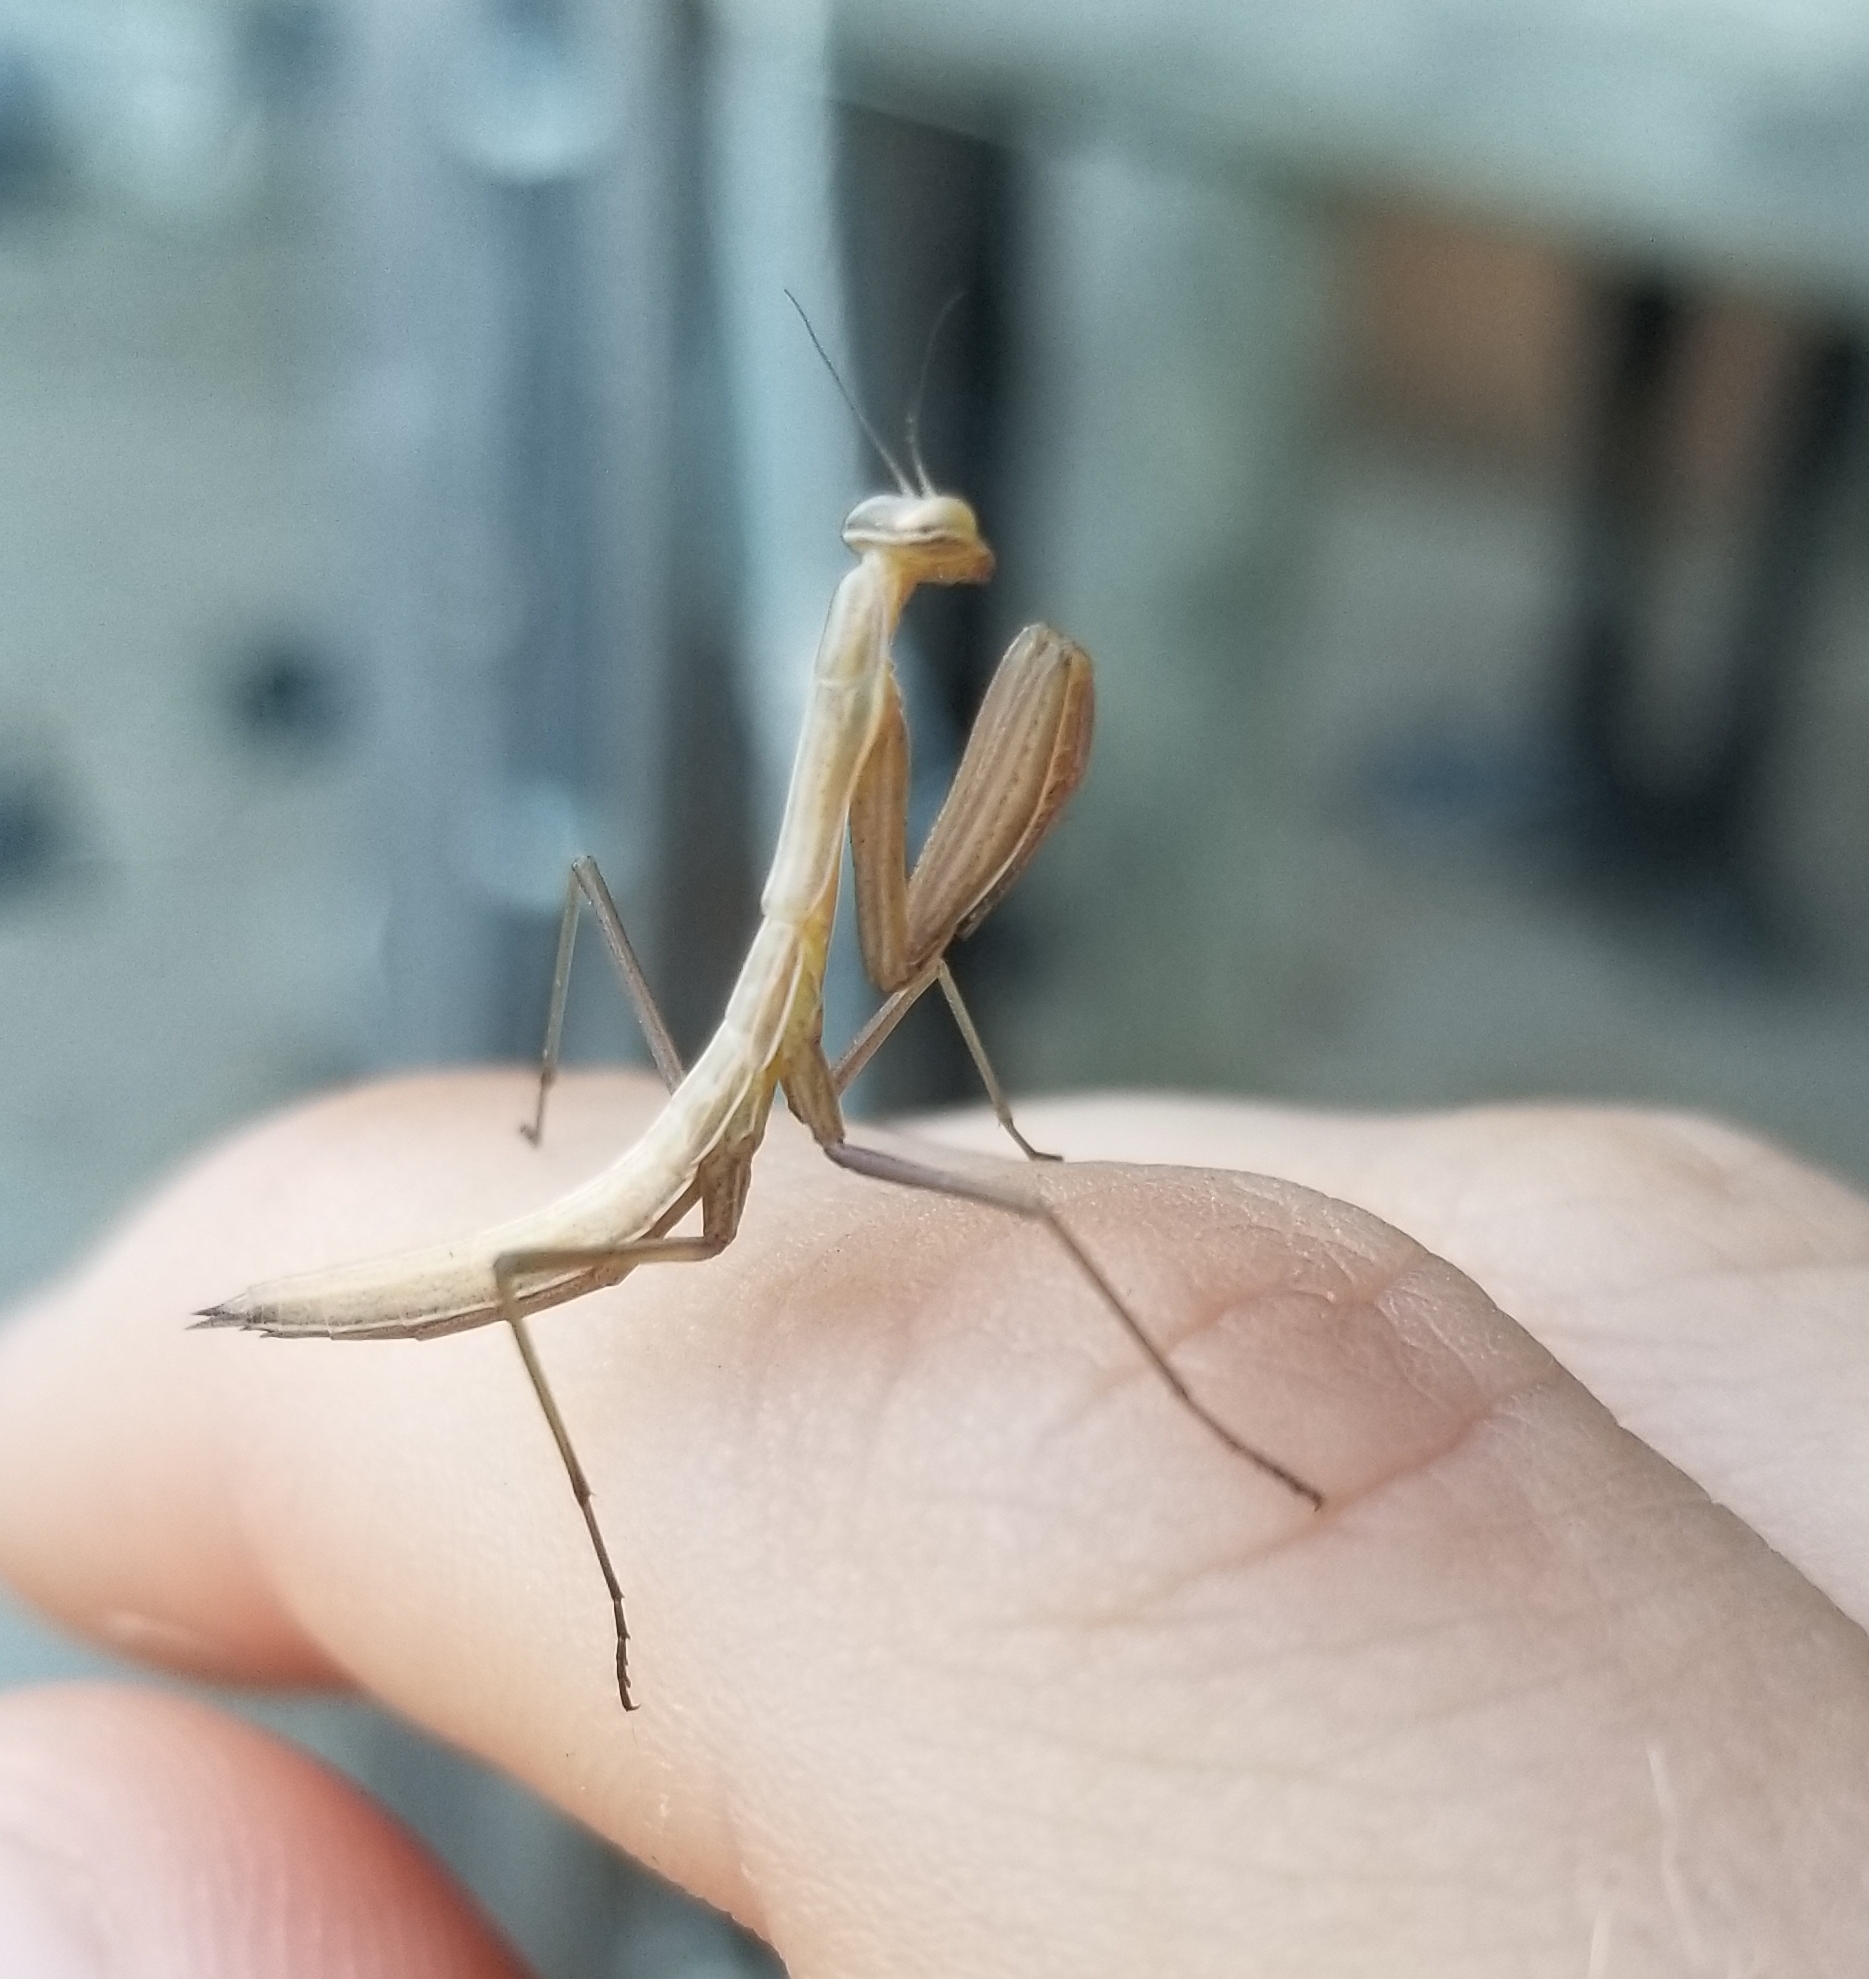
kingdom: Animalia
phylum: Arthropoda
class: Insecta
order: Mantodea
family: Mantidae
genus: Mantis
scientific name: Mantis religiosa
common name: Praying mantis
